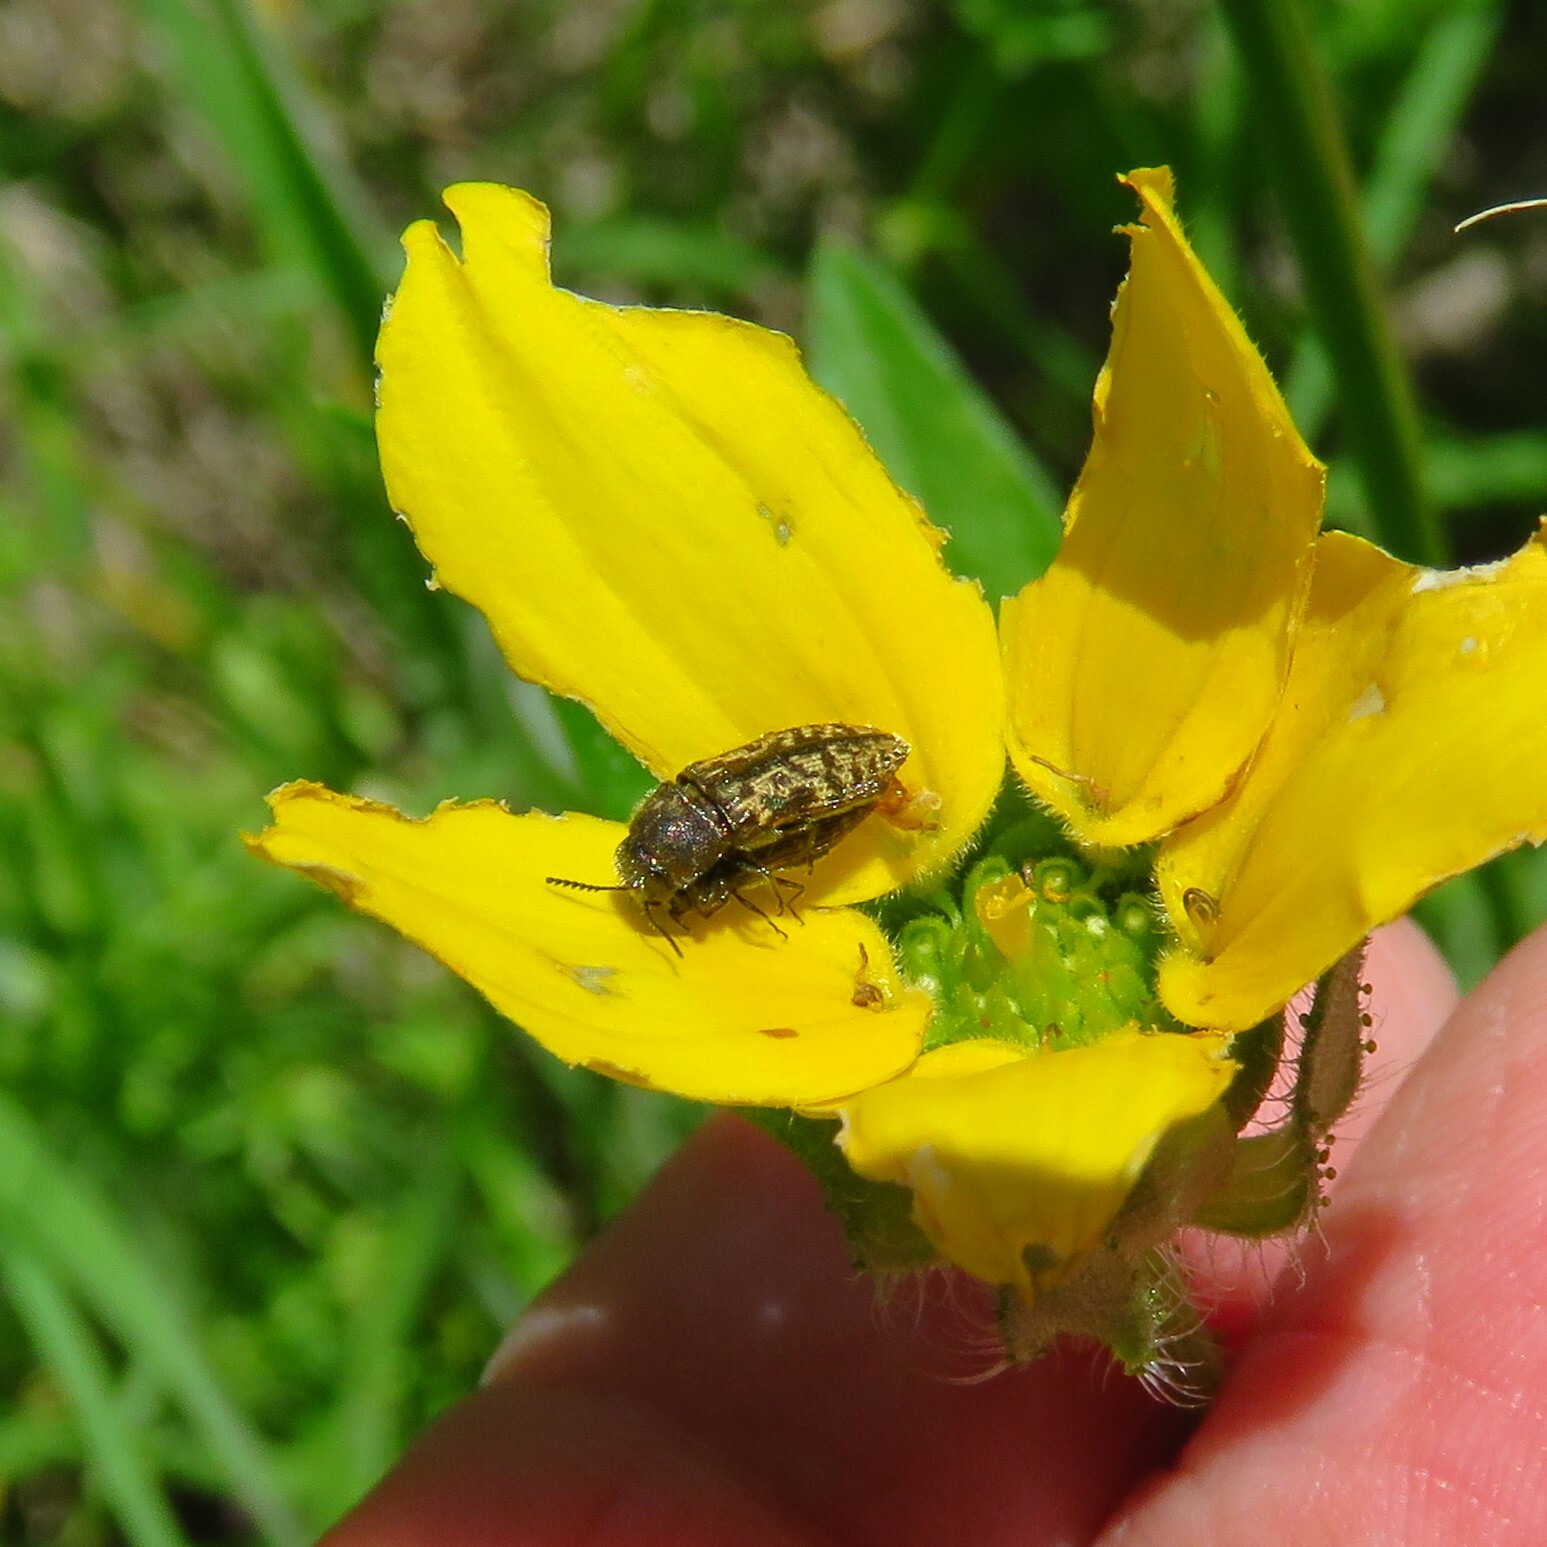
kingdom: Animalia
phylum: Arthropoda
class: Insecta
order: Coleoptera
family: Buprestidae
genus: Acmaeodera
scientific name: Acmaeodera neglecta
